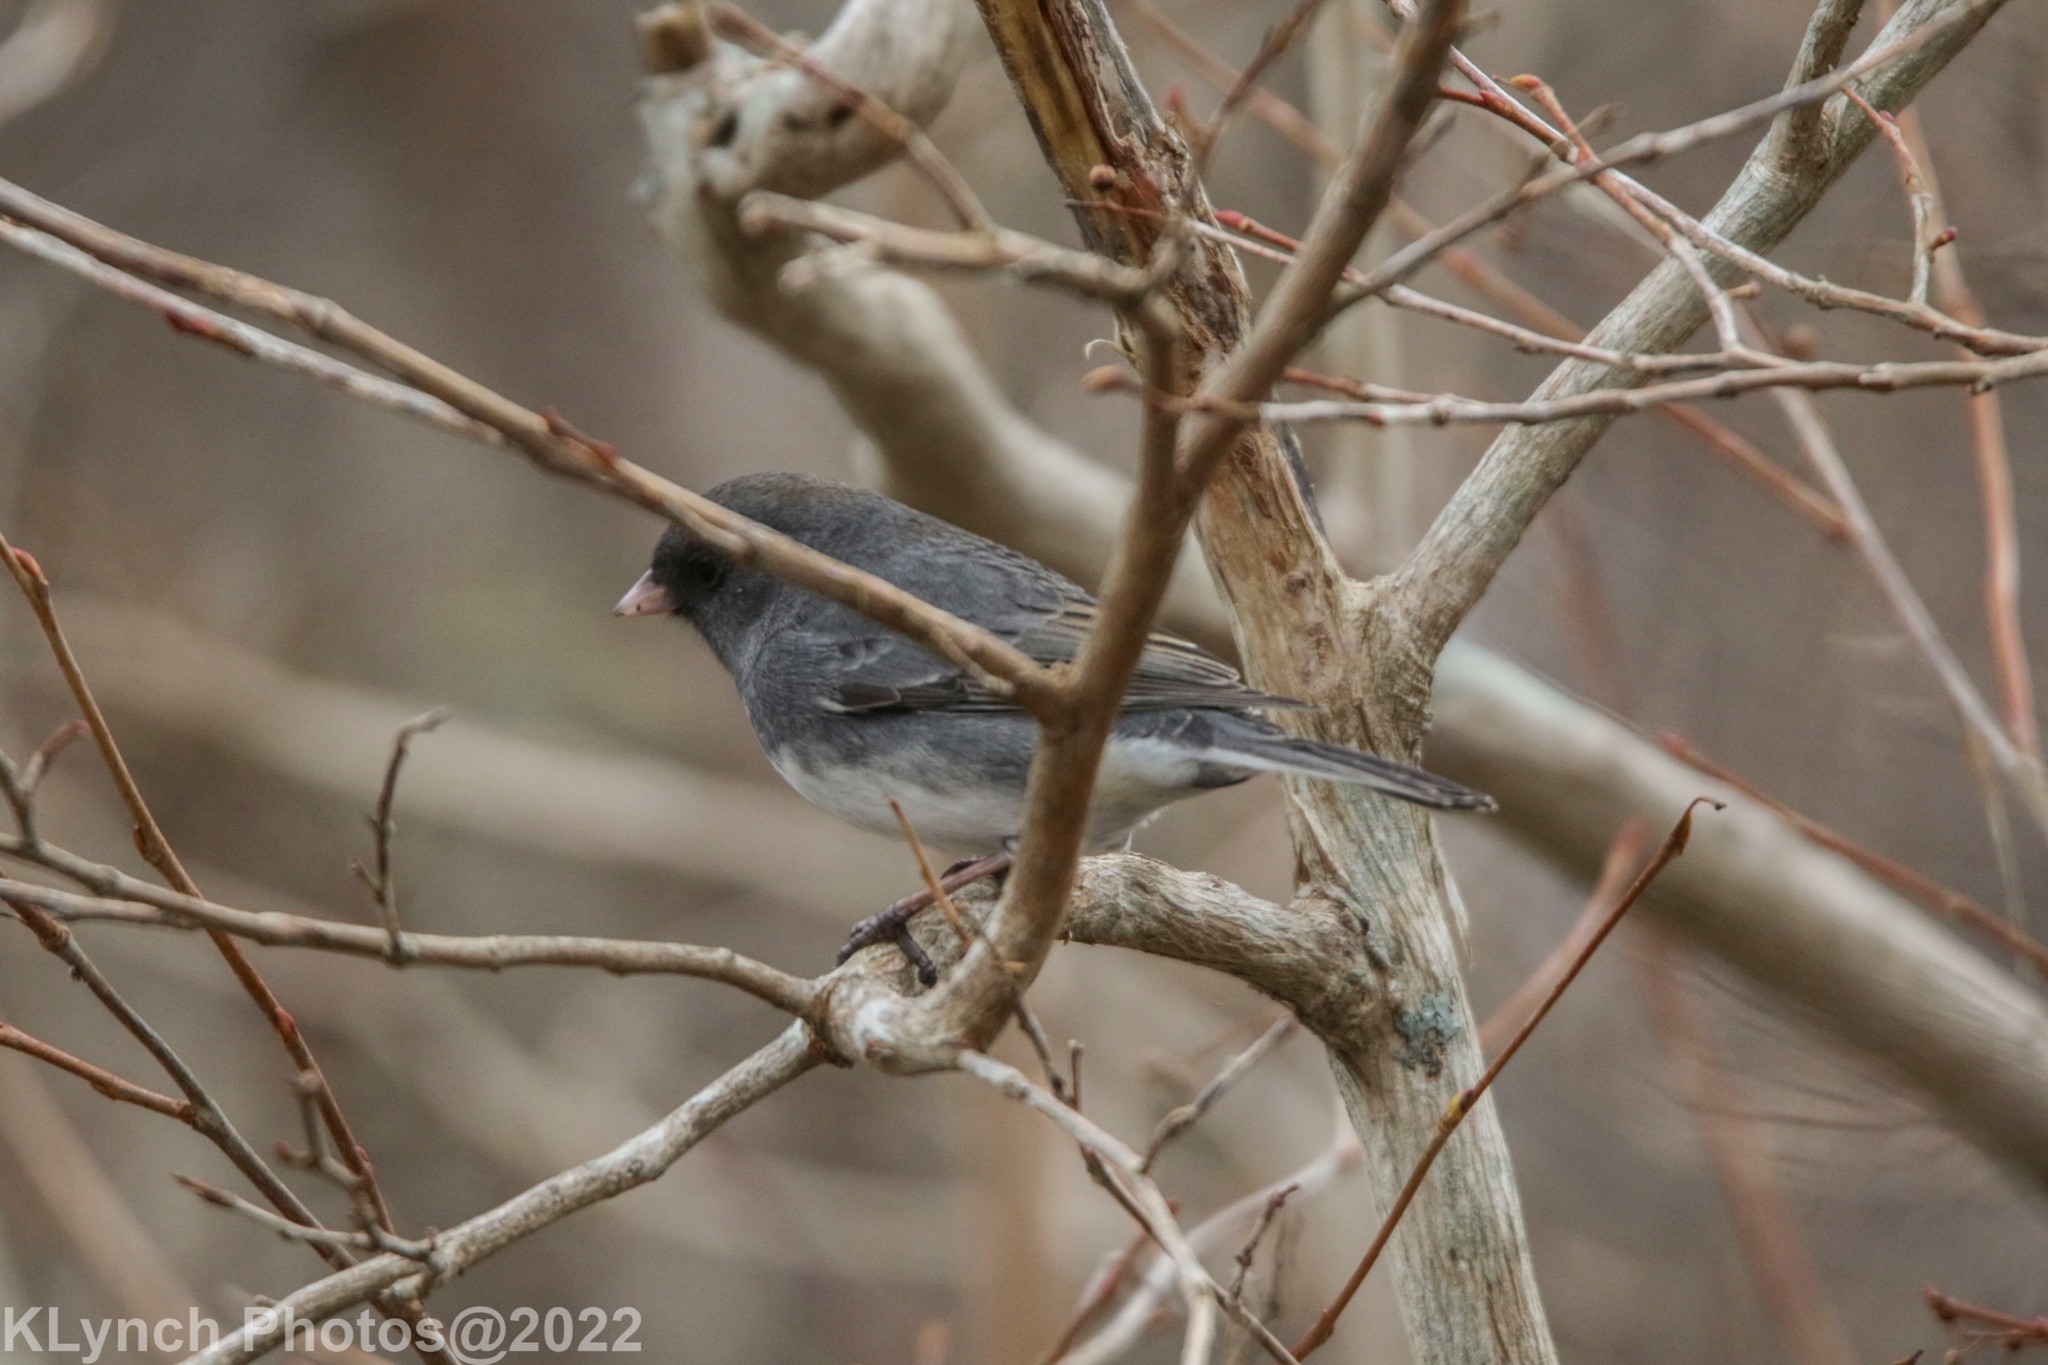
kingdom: Animalia
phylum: Chordata
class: Aves
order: Passeriformes
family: Passerellidae
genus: Junco
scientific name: Junco hyemalis
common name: Dark-eyed junco
